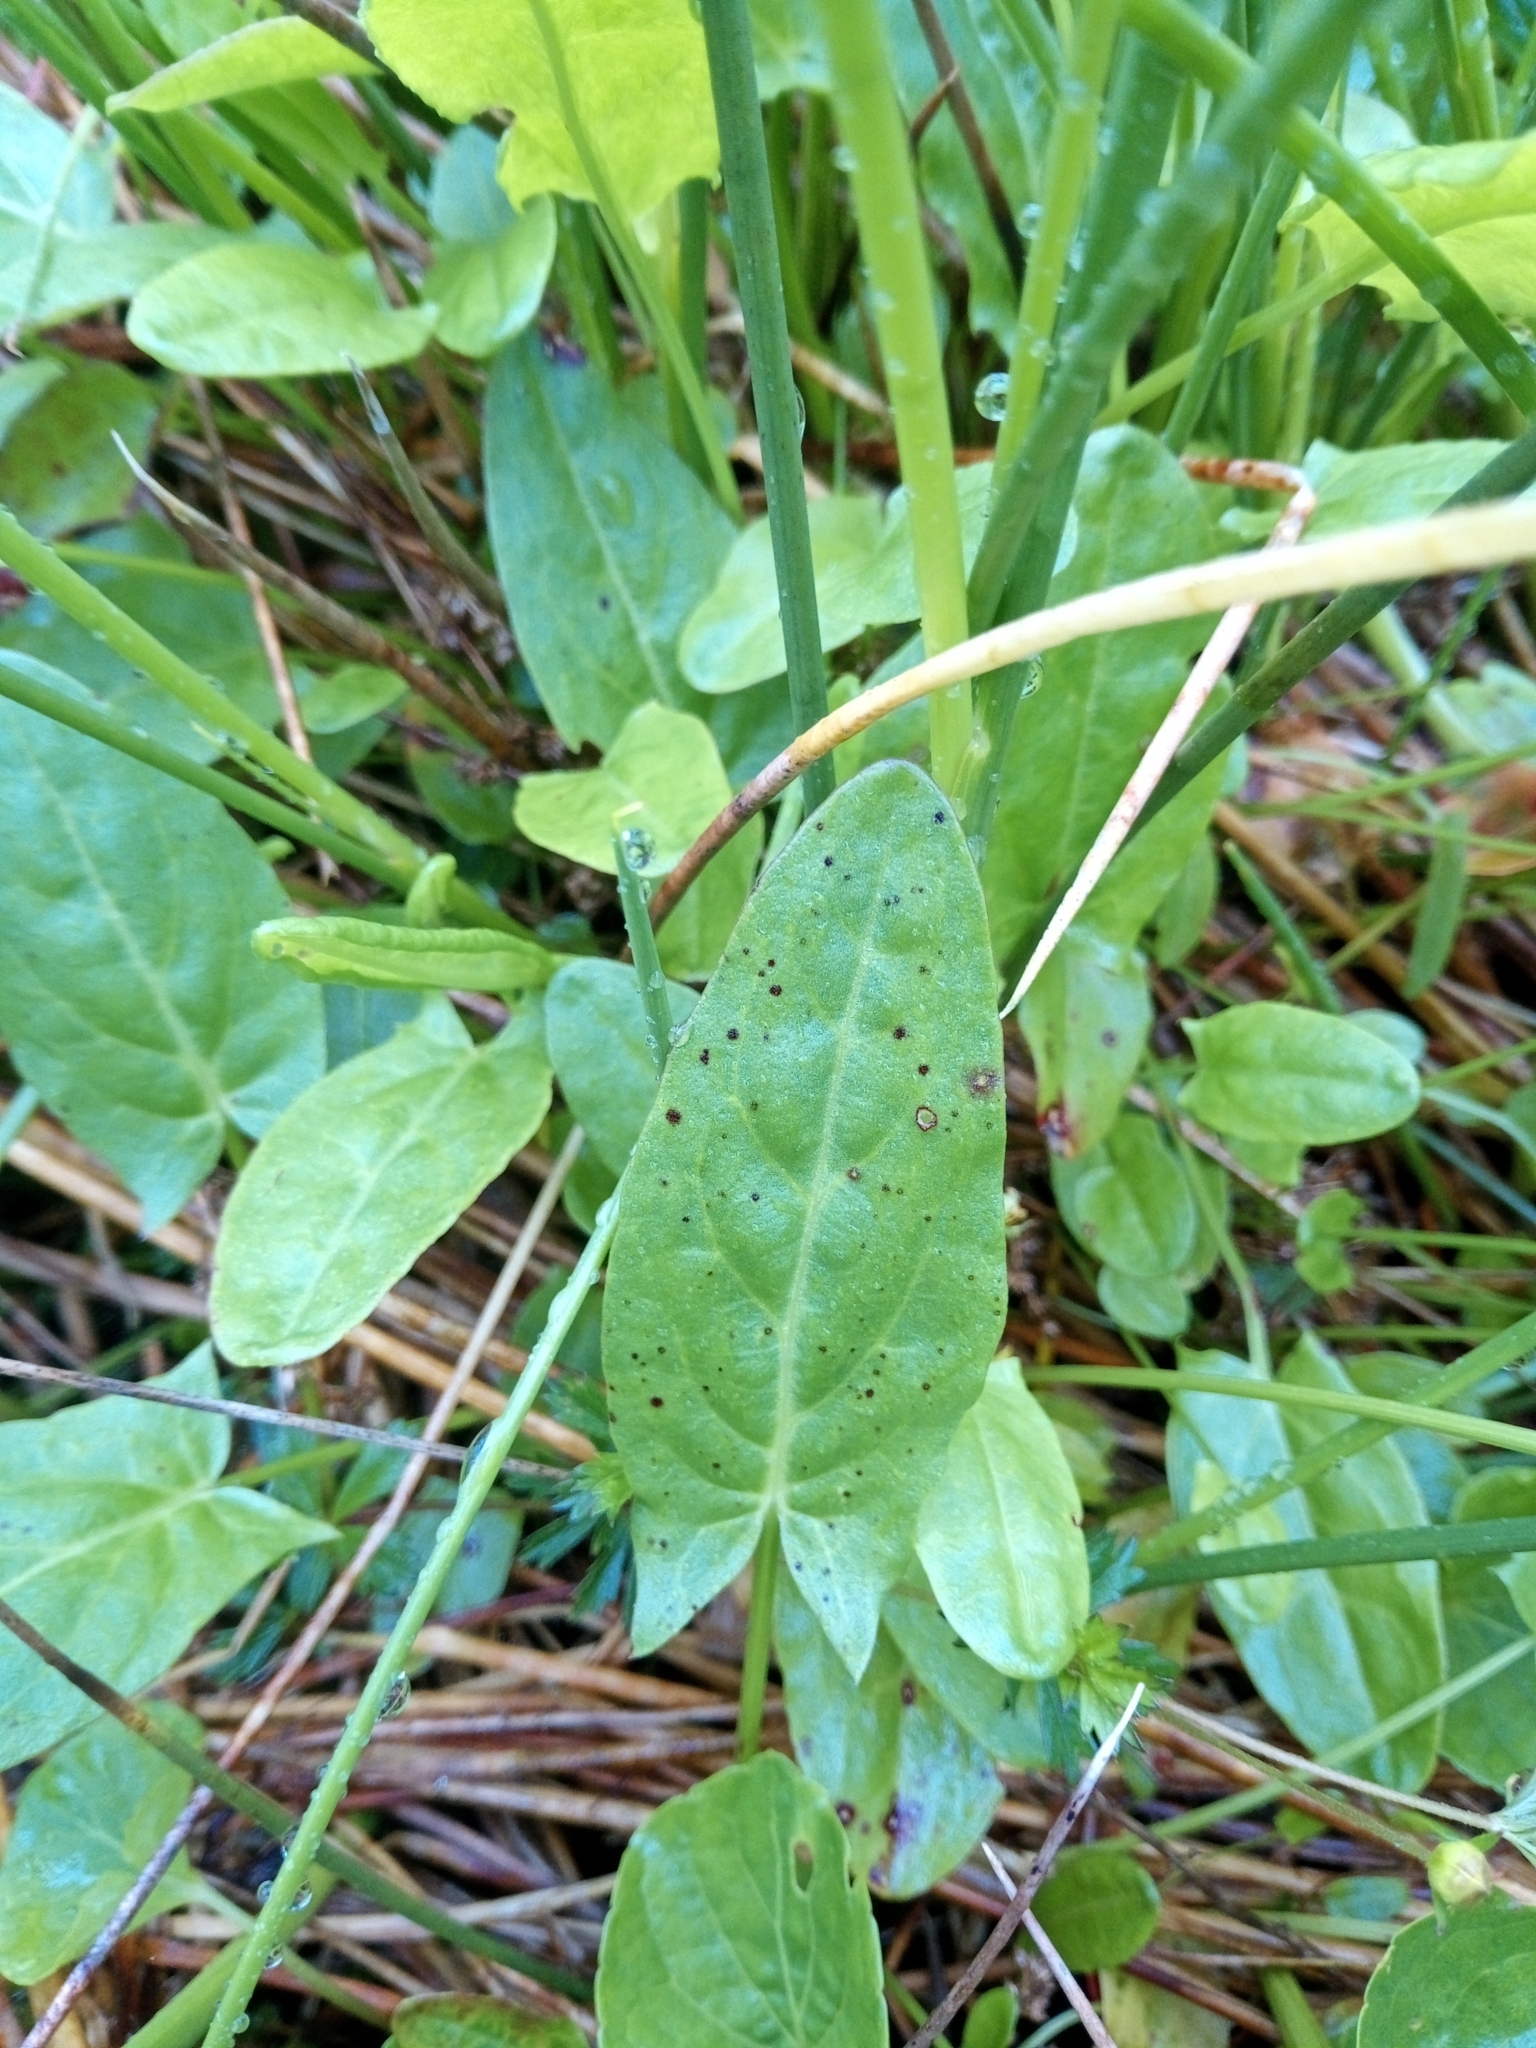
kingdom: Plantae
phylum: Tracheophyta
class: Magnoliopsida
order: Caryophyllales
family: Polygonaceae
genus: Rumex
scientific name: Rumex acetosa
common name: Garden sorrel
